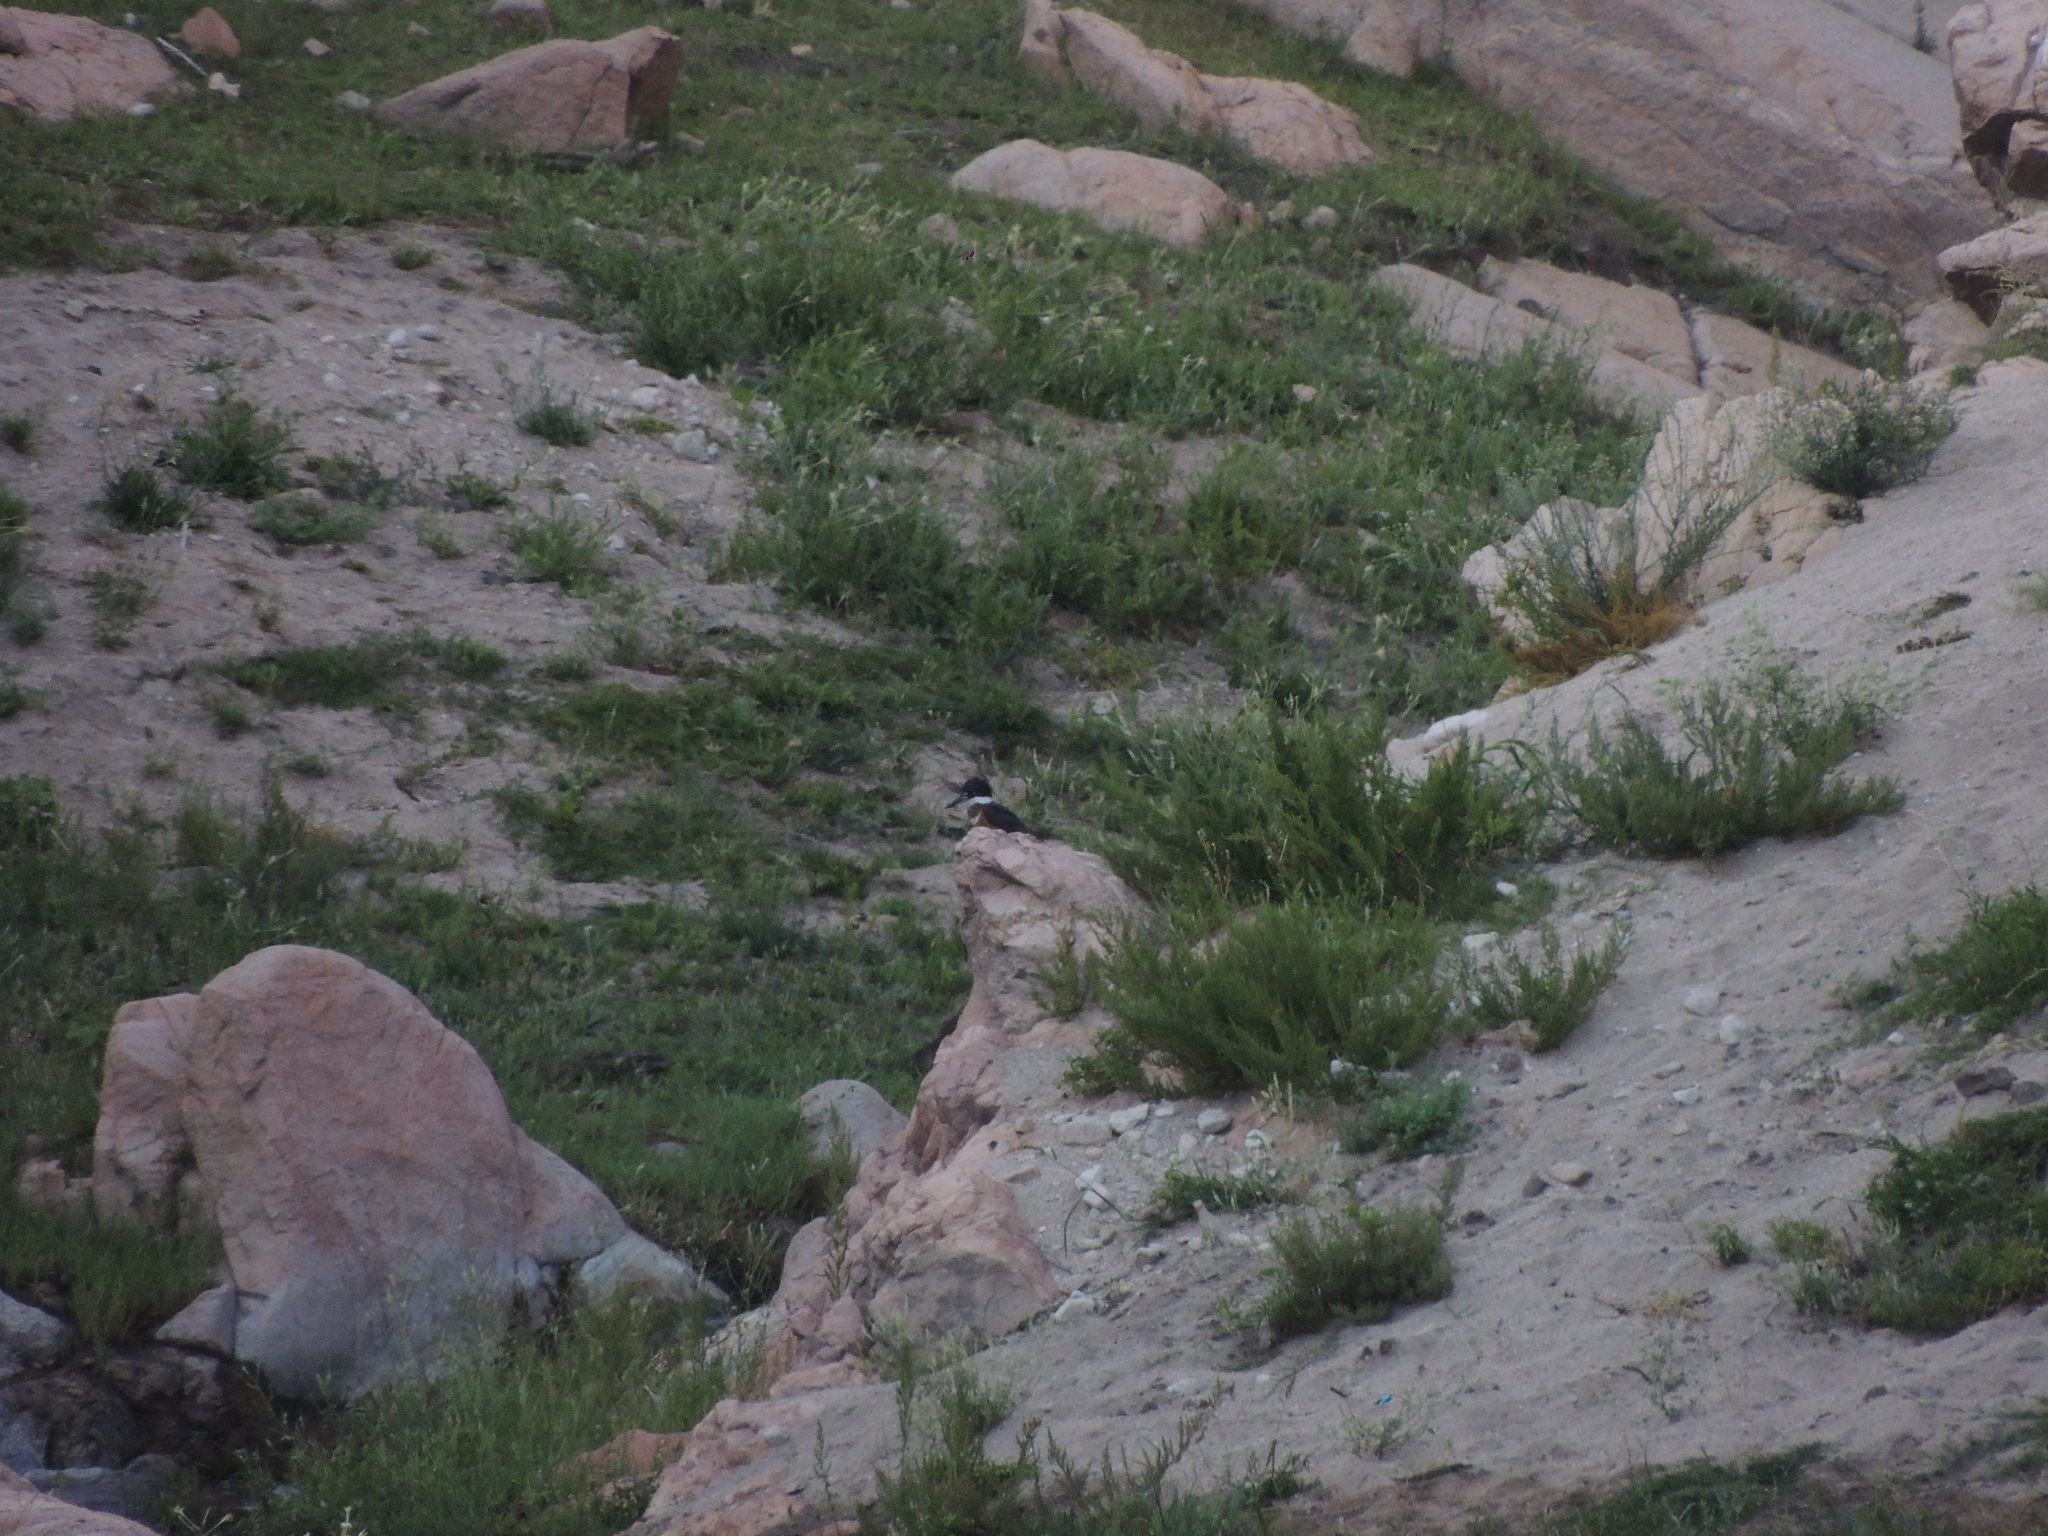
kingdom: Animalia
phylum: Chordata
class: Aves
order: Coraciiformes
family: Alcedinidae
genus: Megaceryle
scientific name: Megaceryle torquata
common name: Ringed kingfisher
